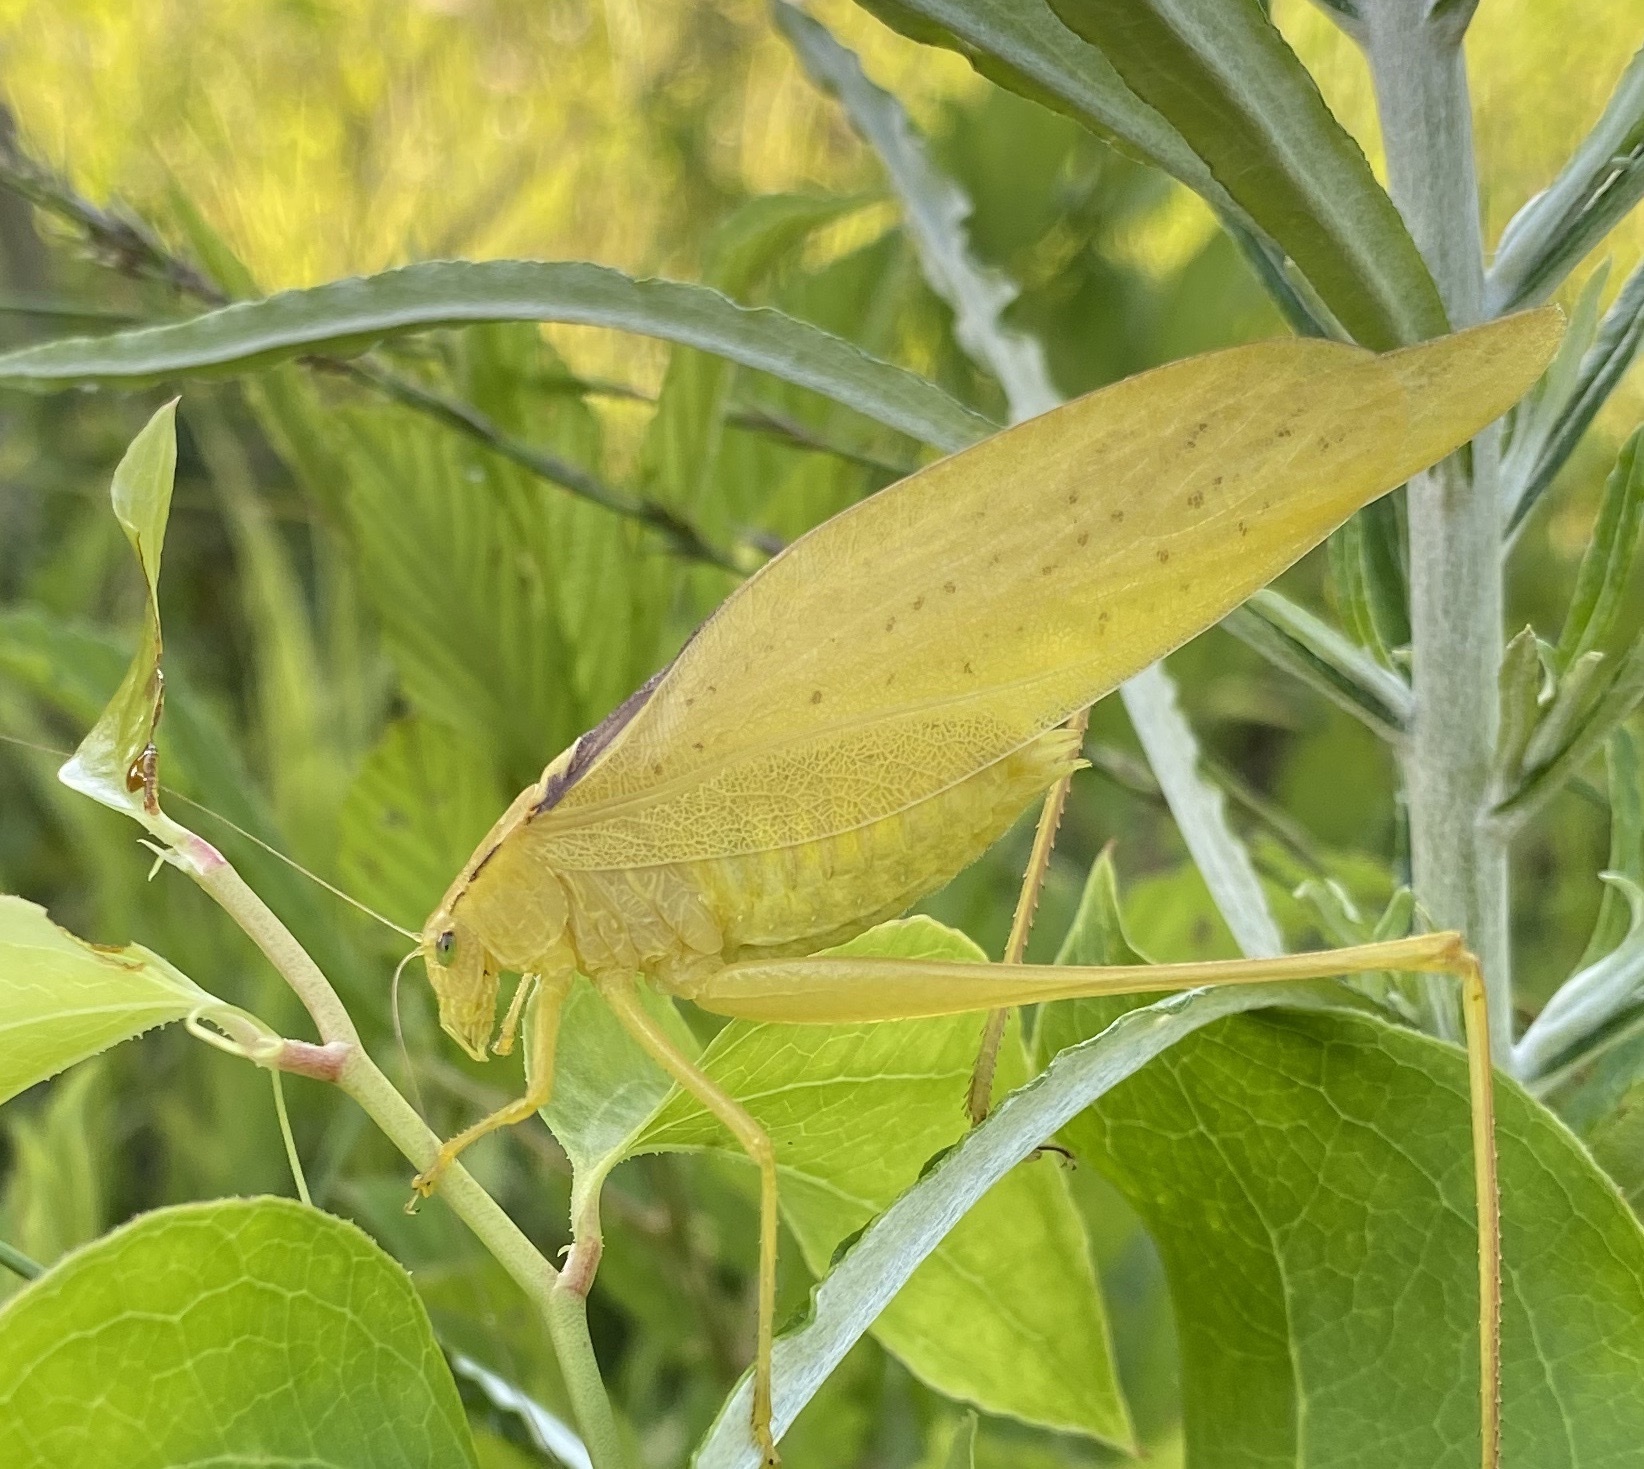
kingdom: Animalia
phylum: Arthropoda
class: Insecta
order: Orthoptera
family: Tettigoniidae
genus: Amblycorypha
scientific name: Amblycorypha oblongifolia
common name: Oblong-winged katydid
